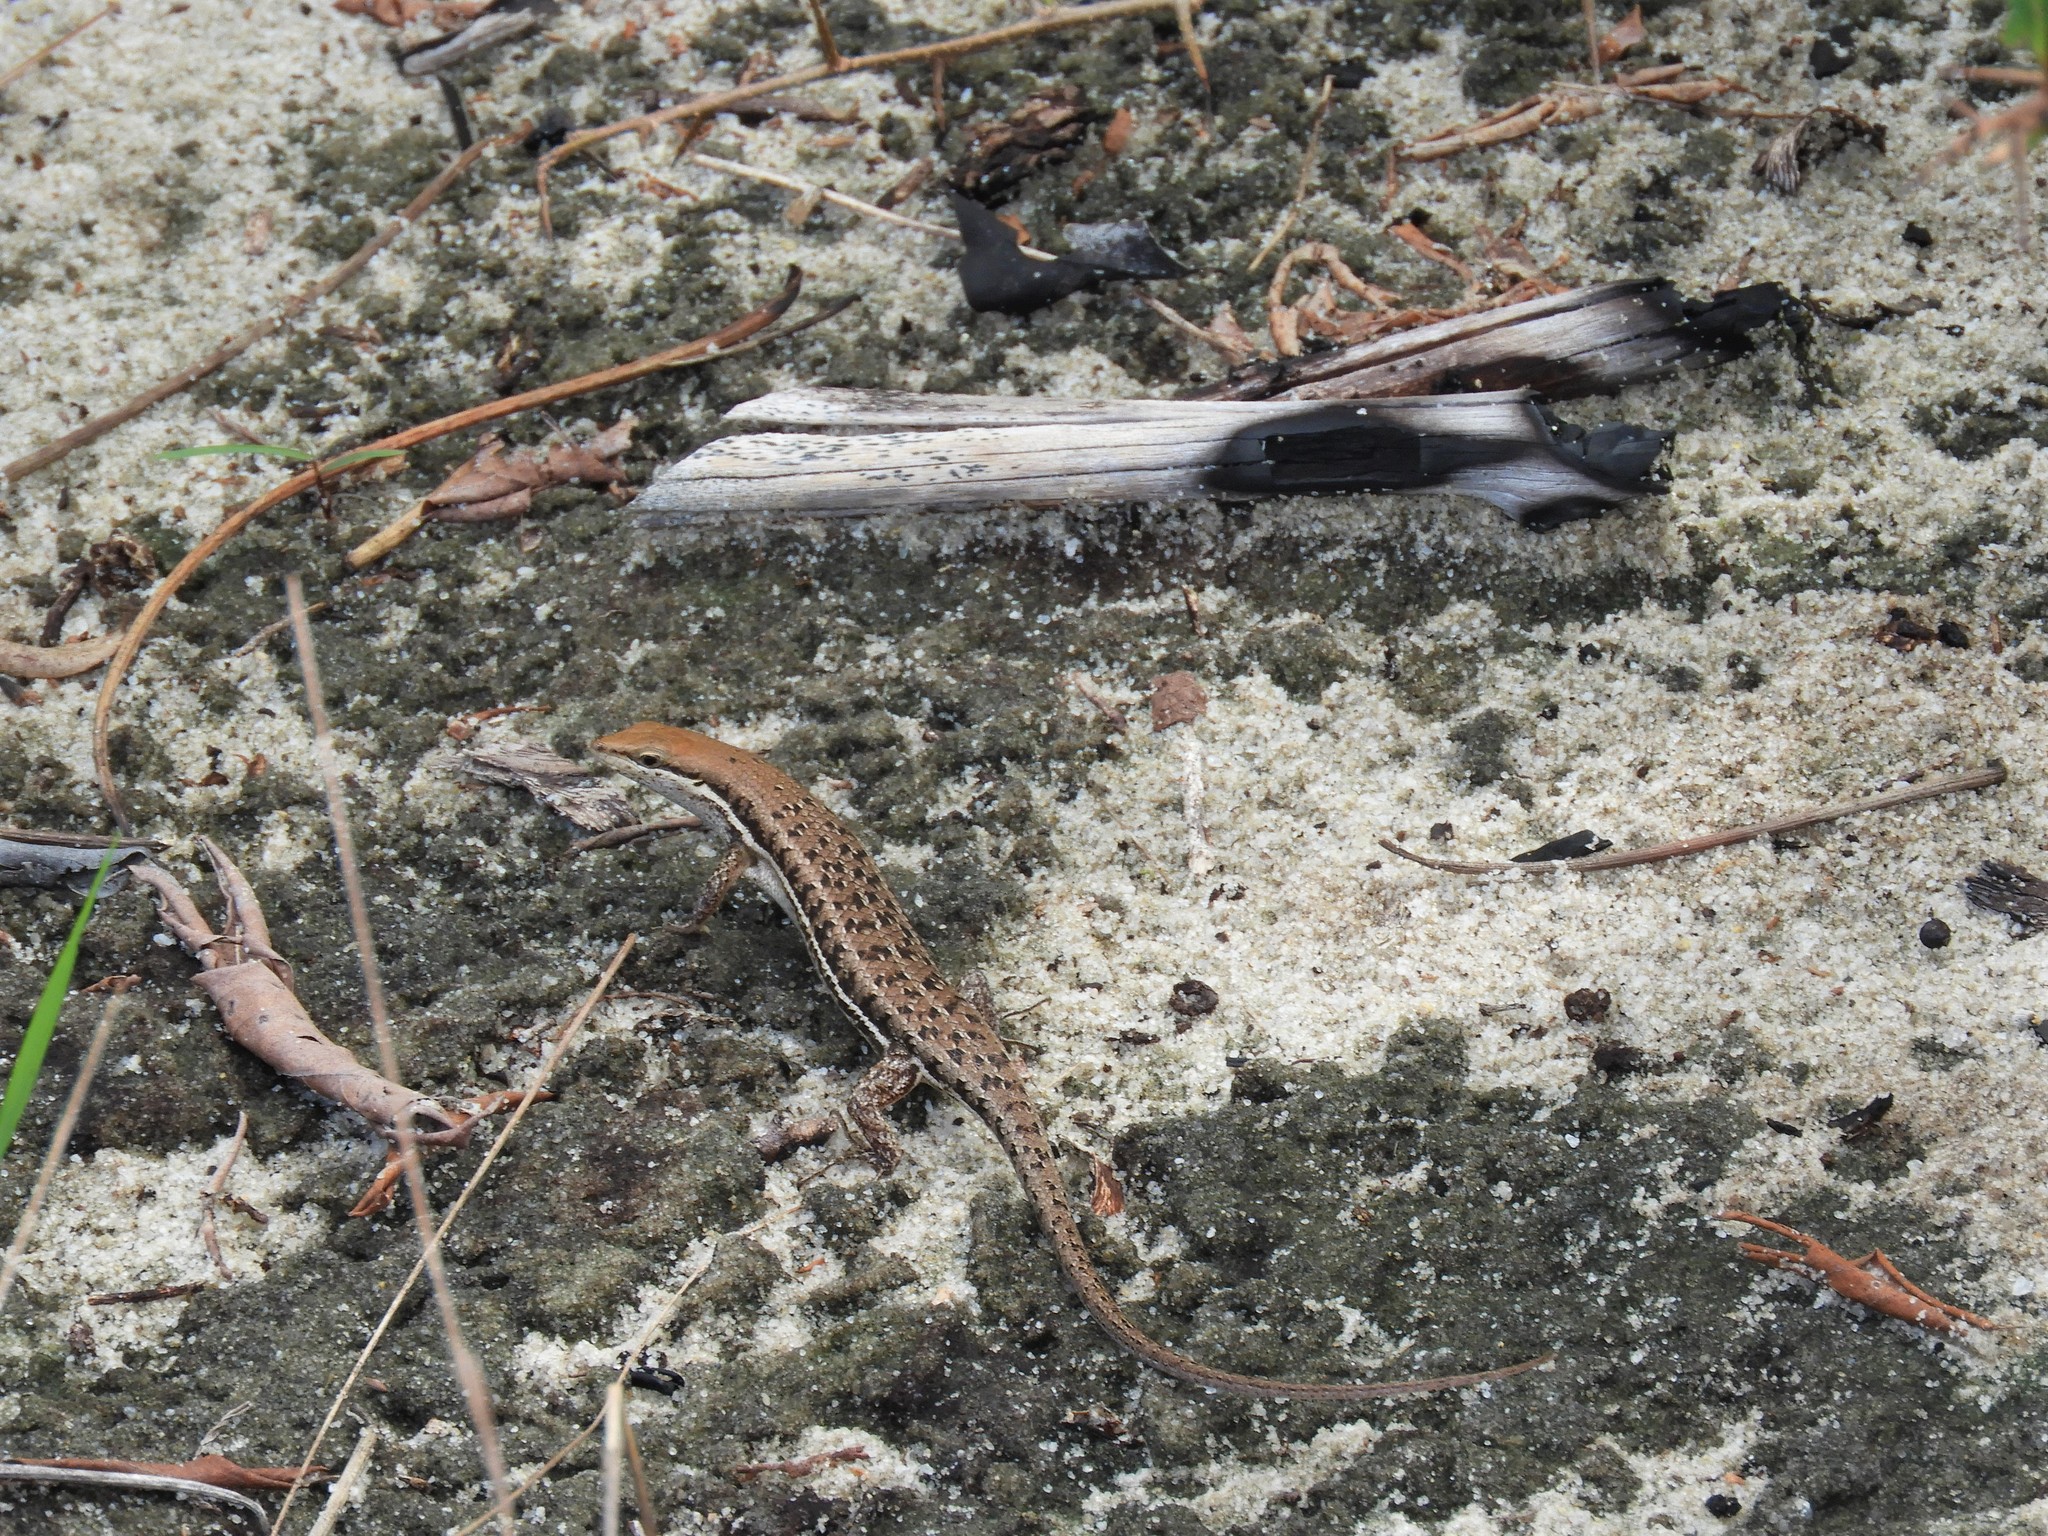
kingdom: Animalia
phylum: Chordata
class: Squamata
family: Scincidae
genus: Trachylepis
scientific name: Trachylepis varia
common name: Eastern variable skink
